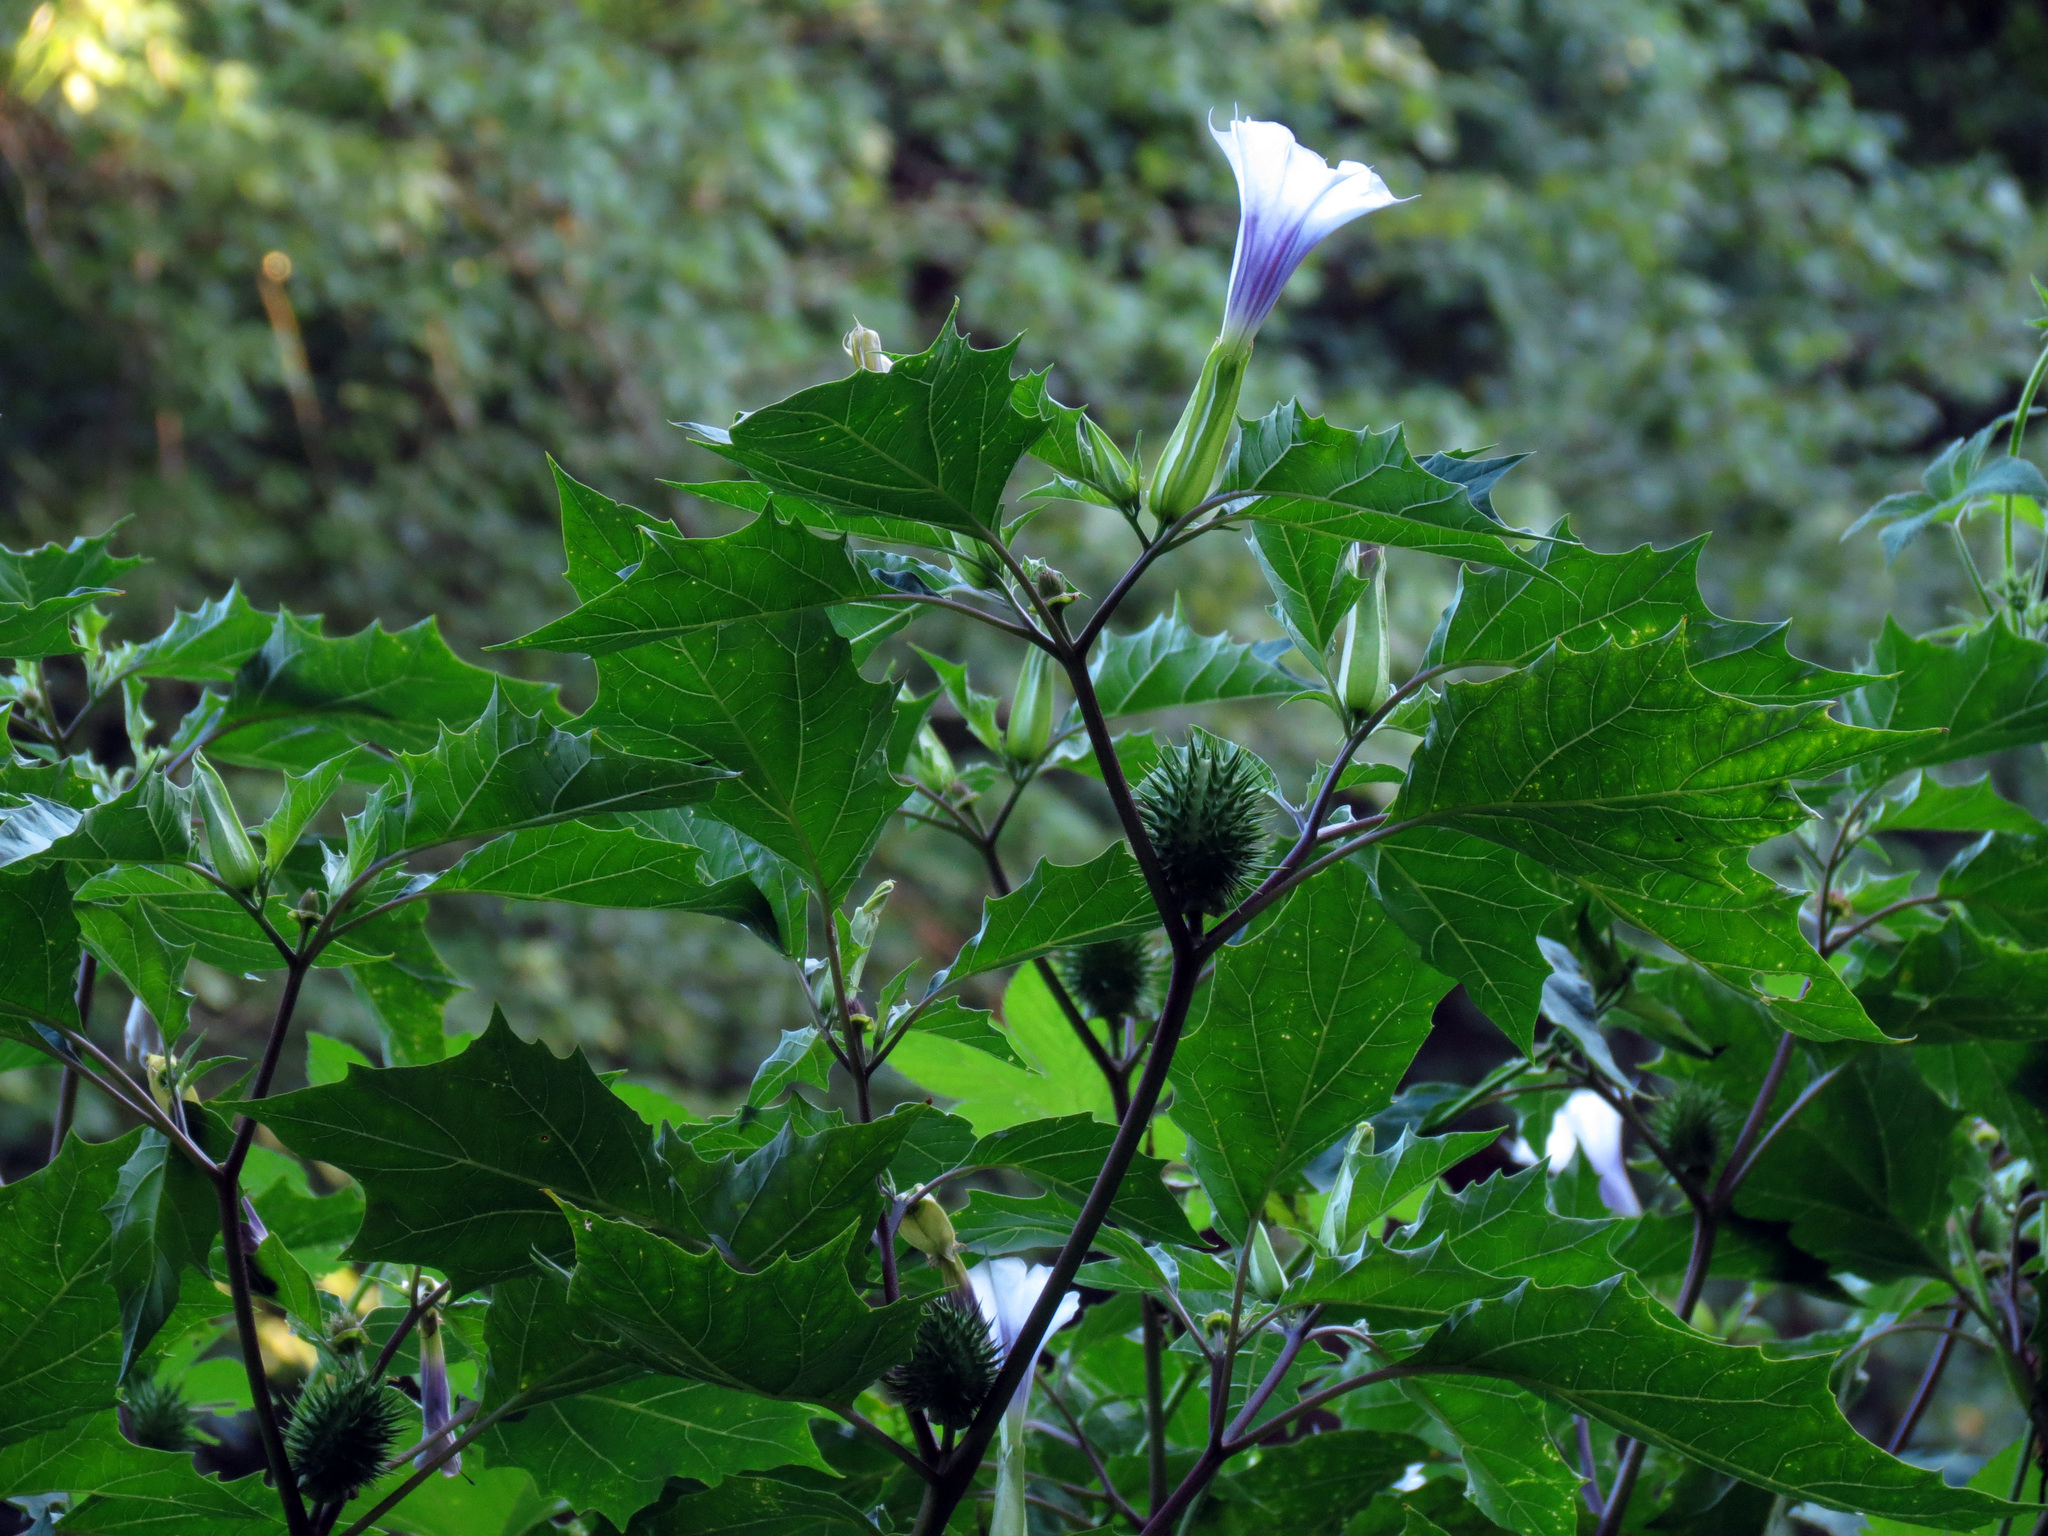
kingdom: Plantae
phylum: Tracheophyta
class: Magnoliopsida
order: Solanales
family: Solanaceae
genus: Datura
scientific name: Datura stramonium
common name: Thorn-apple
